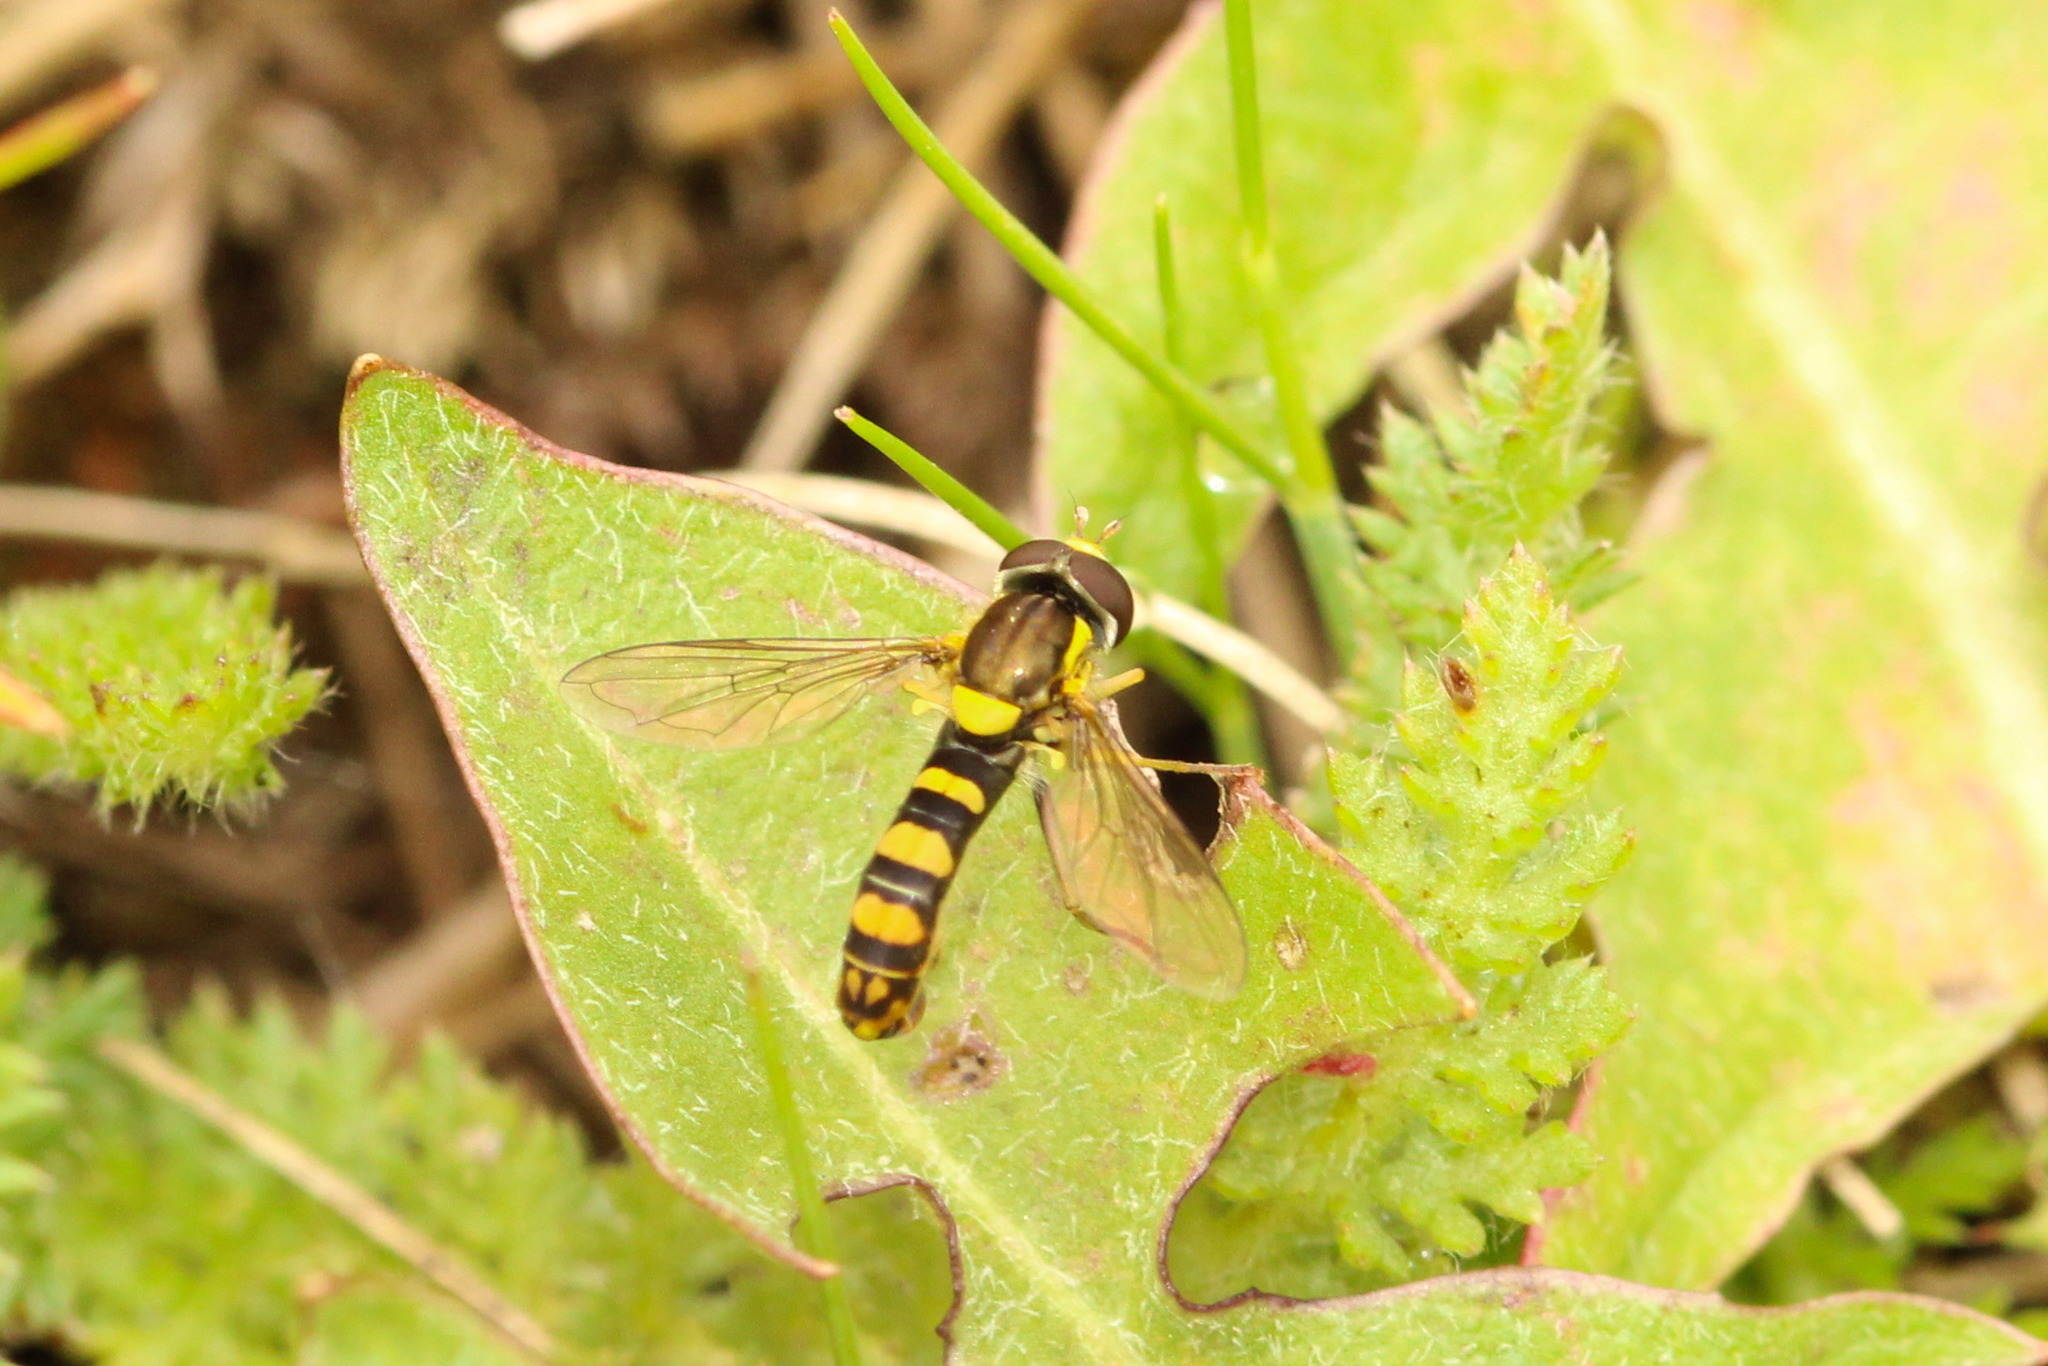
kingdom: Animalia
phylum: Arthropoda
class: Insecta
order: Diptera
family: Syrphidae
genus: Sphaerophoria
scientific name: Sphaerophoria
